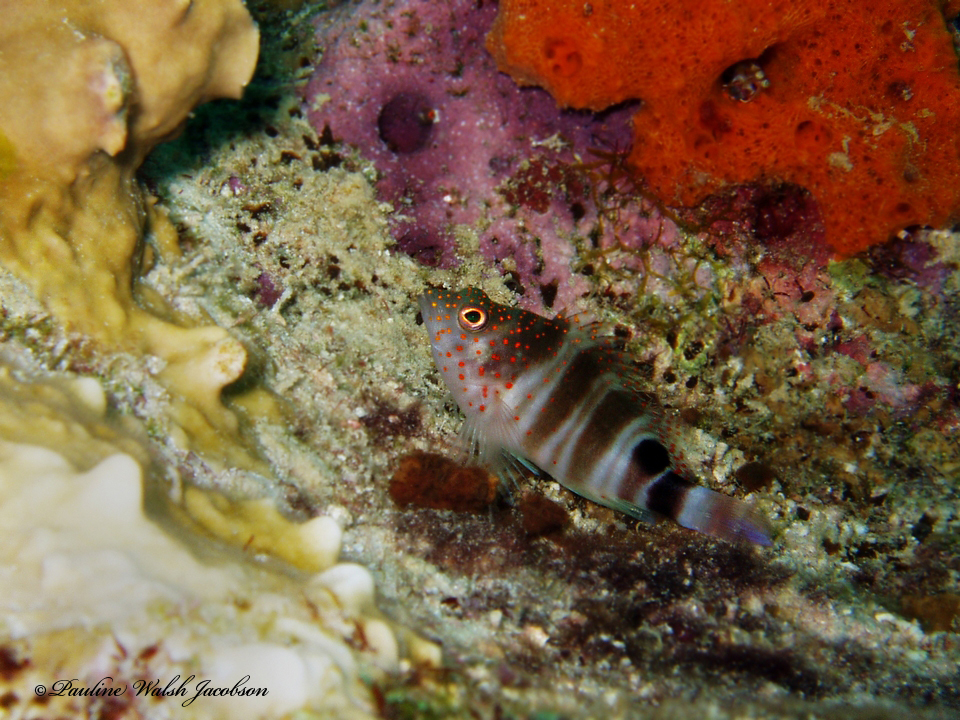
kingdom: Animalia
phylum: Chordata
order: Perciformes
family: Cirrhitidae
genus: Amblycirrhitus
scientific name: Amblycirrhitus pinos
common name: Redspotted hawkfish
